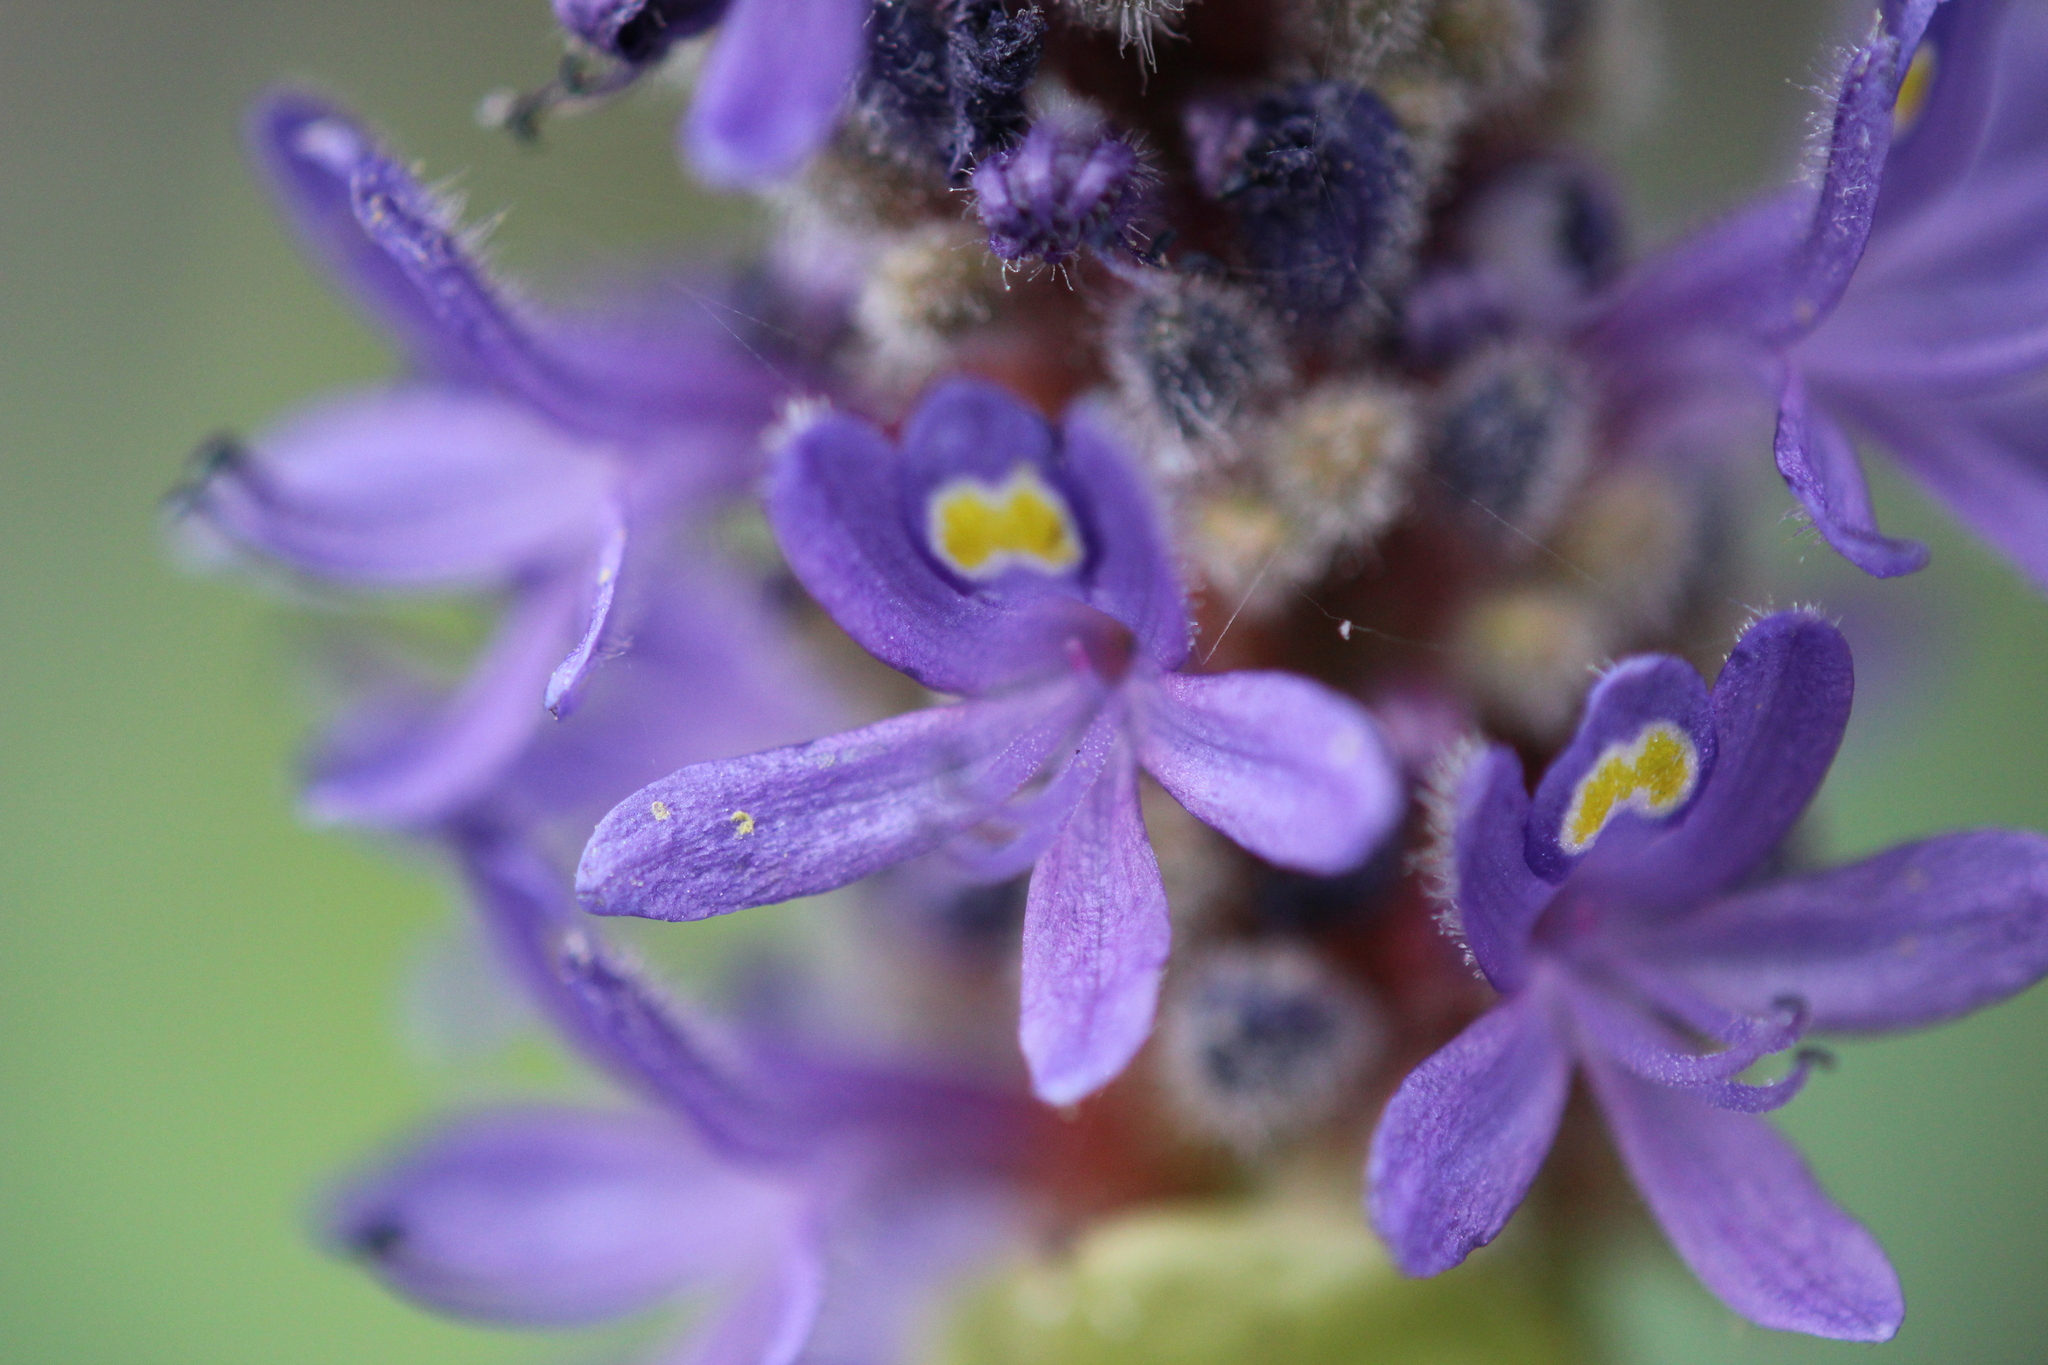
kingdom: Plantae
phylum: Tracheophyta
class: Liliopsida
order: Commelinales
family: Pontederiaceae
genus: Pontederia
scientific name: Pontederia cordata
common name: Pickerelweed
